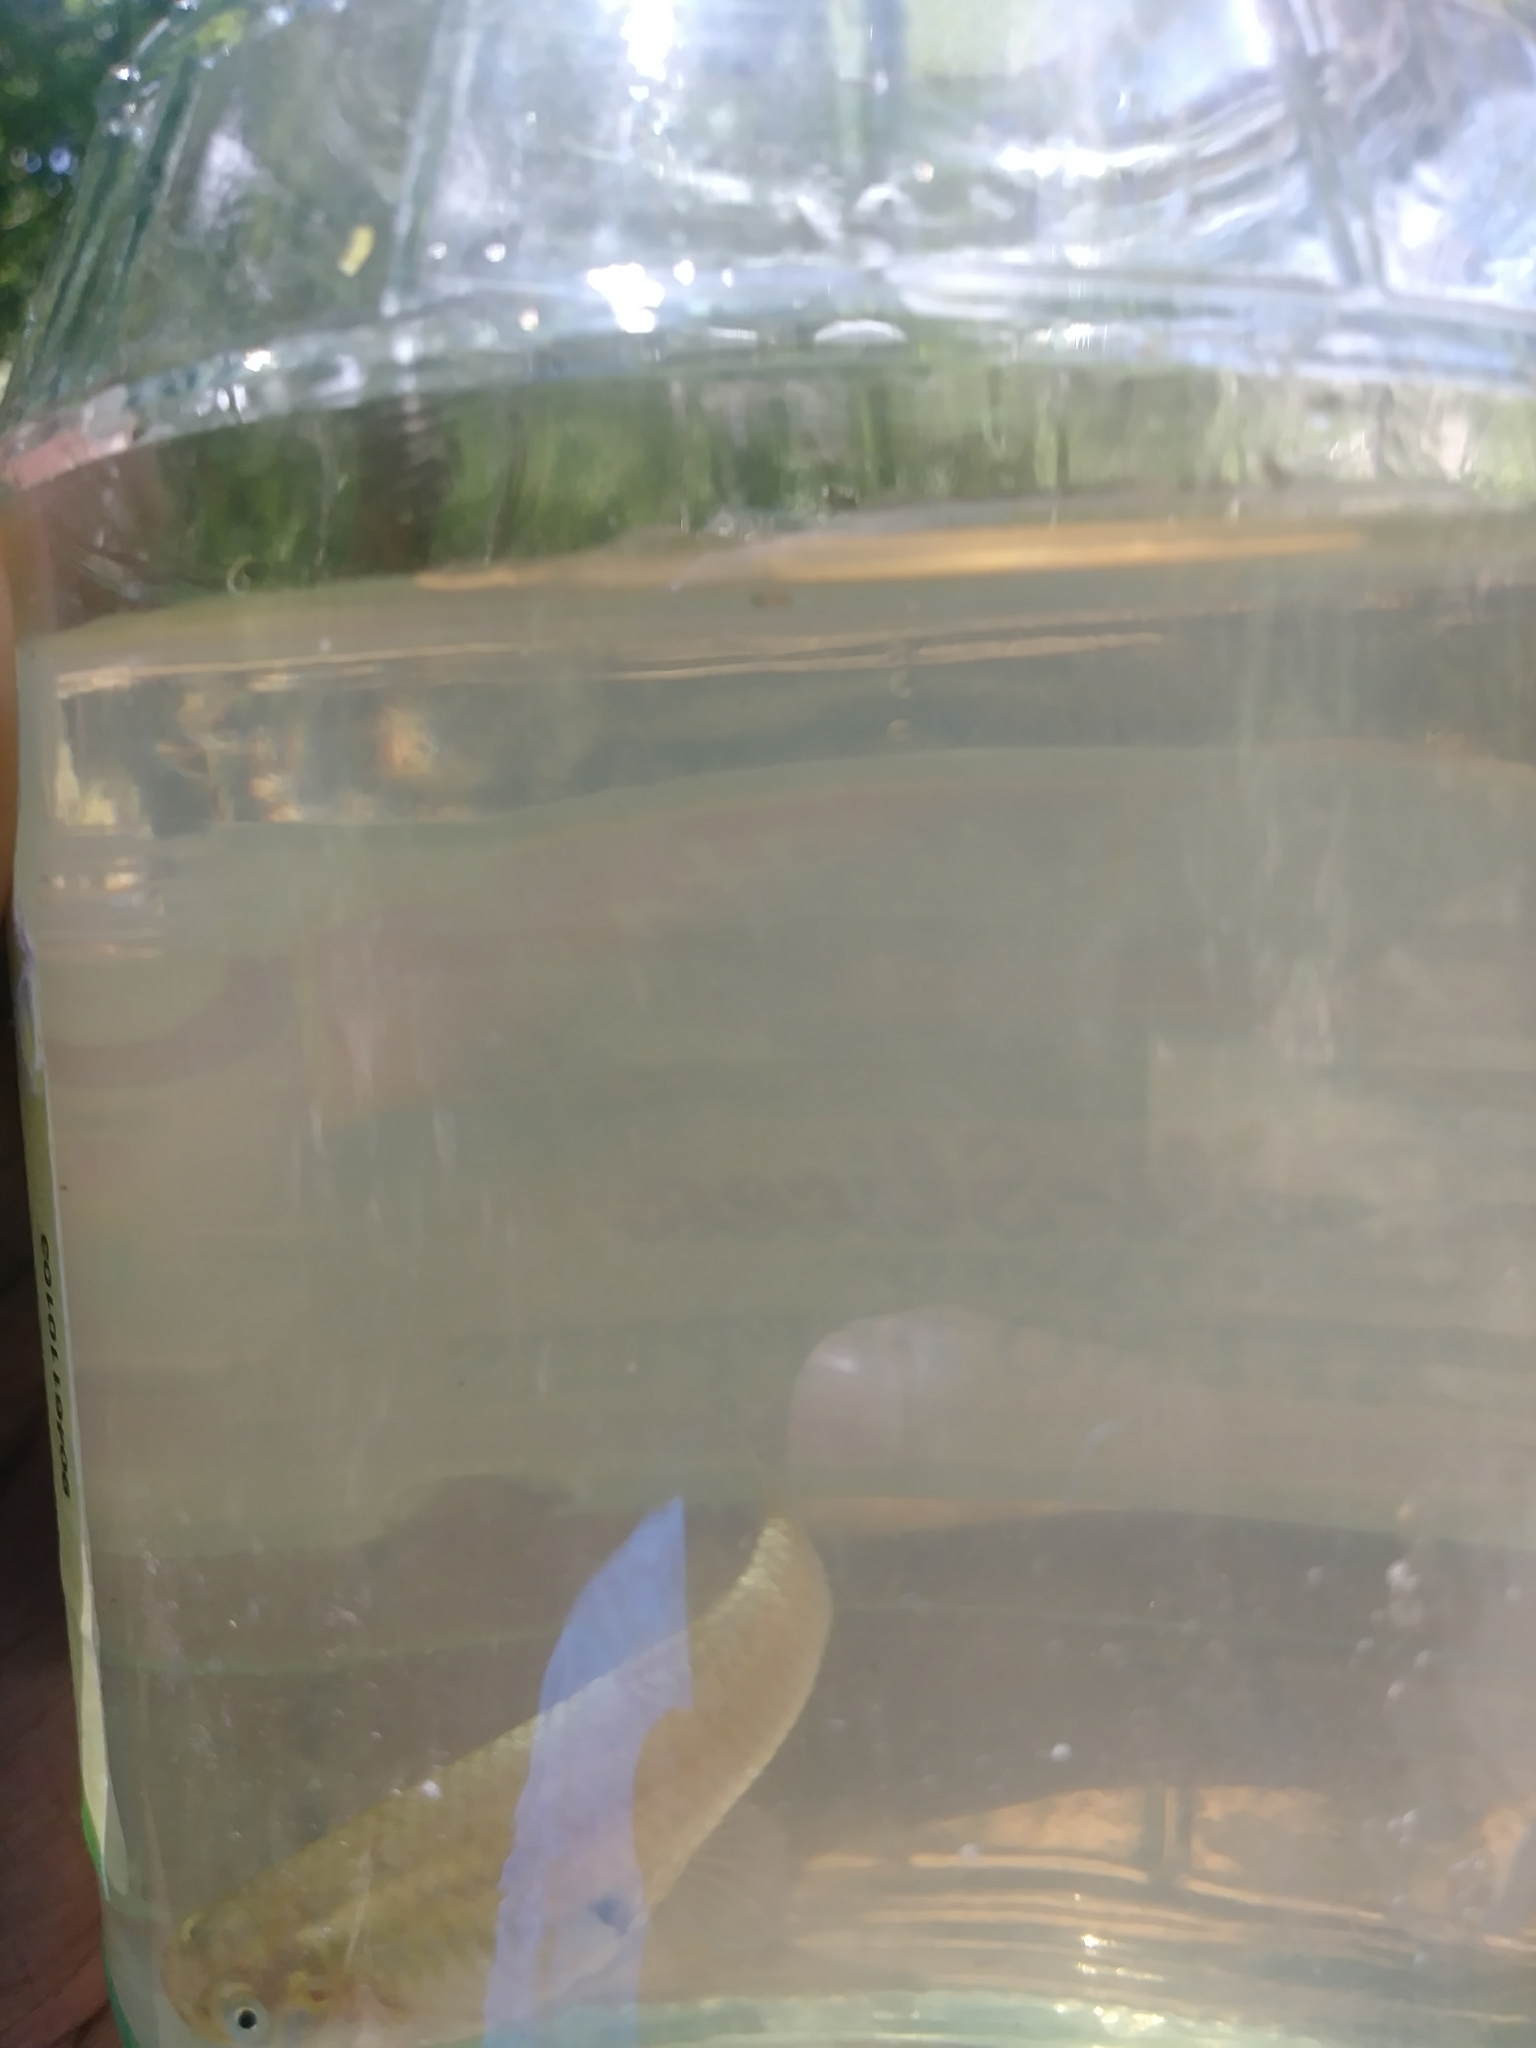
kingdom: Animalia
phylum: Chordata
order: Cyprinodontiformes
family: Poeciliidae
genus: Gambusia
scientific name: Gambusia holbrooki
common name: Eastern mosquitofish
